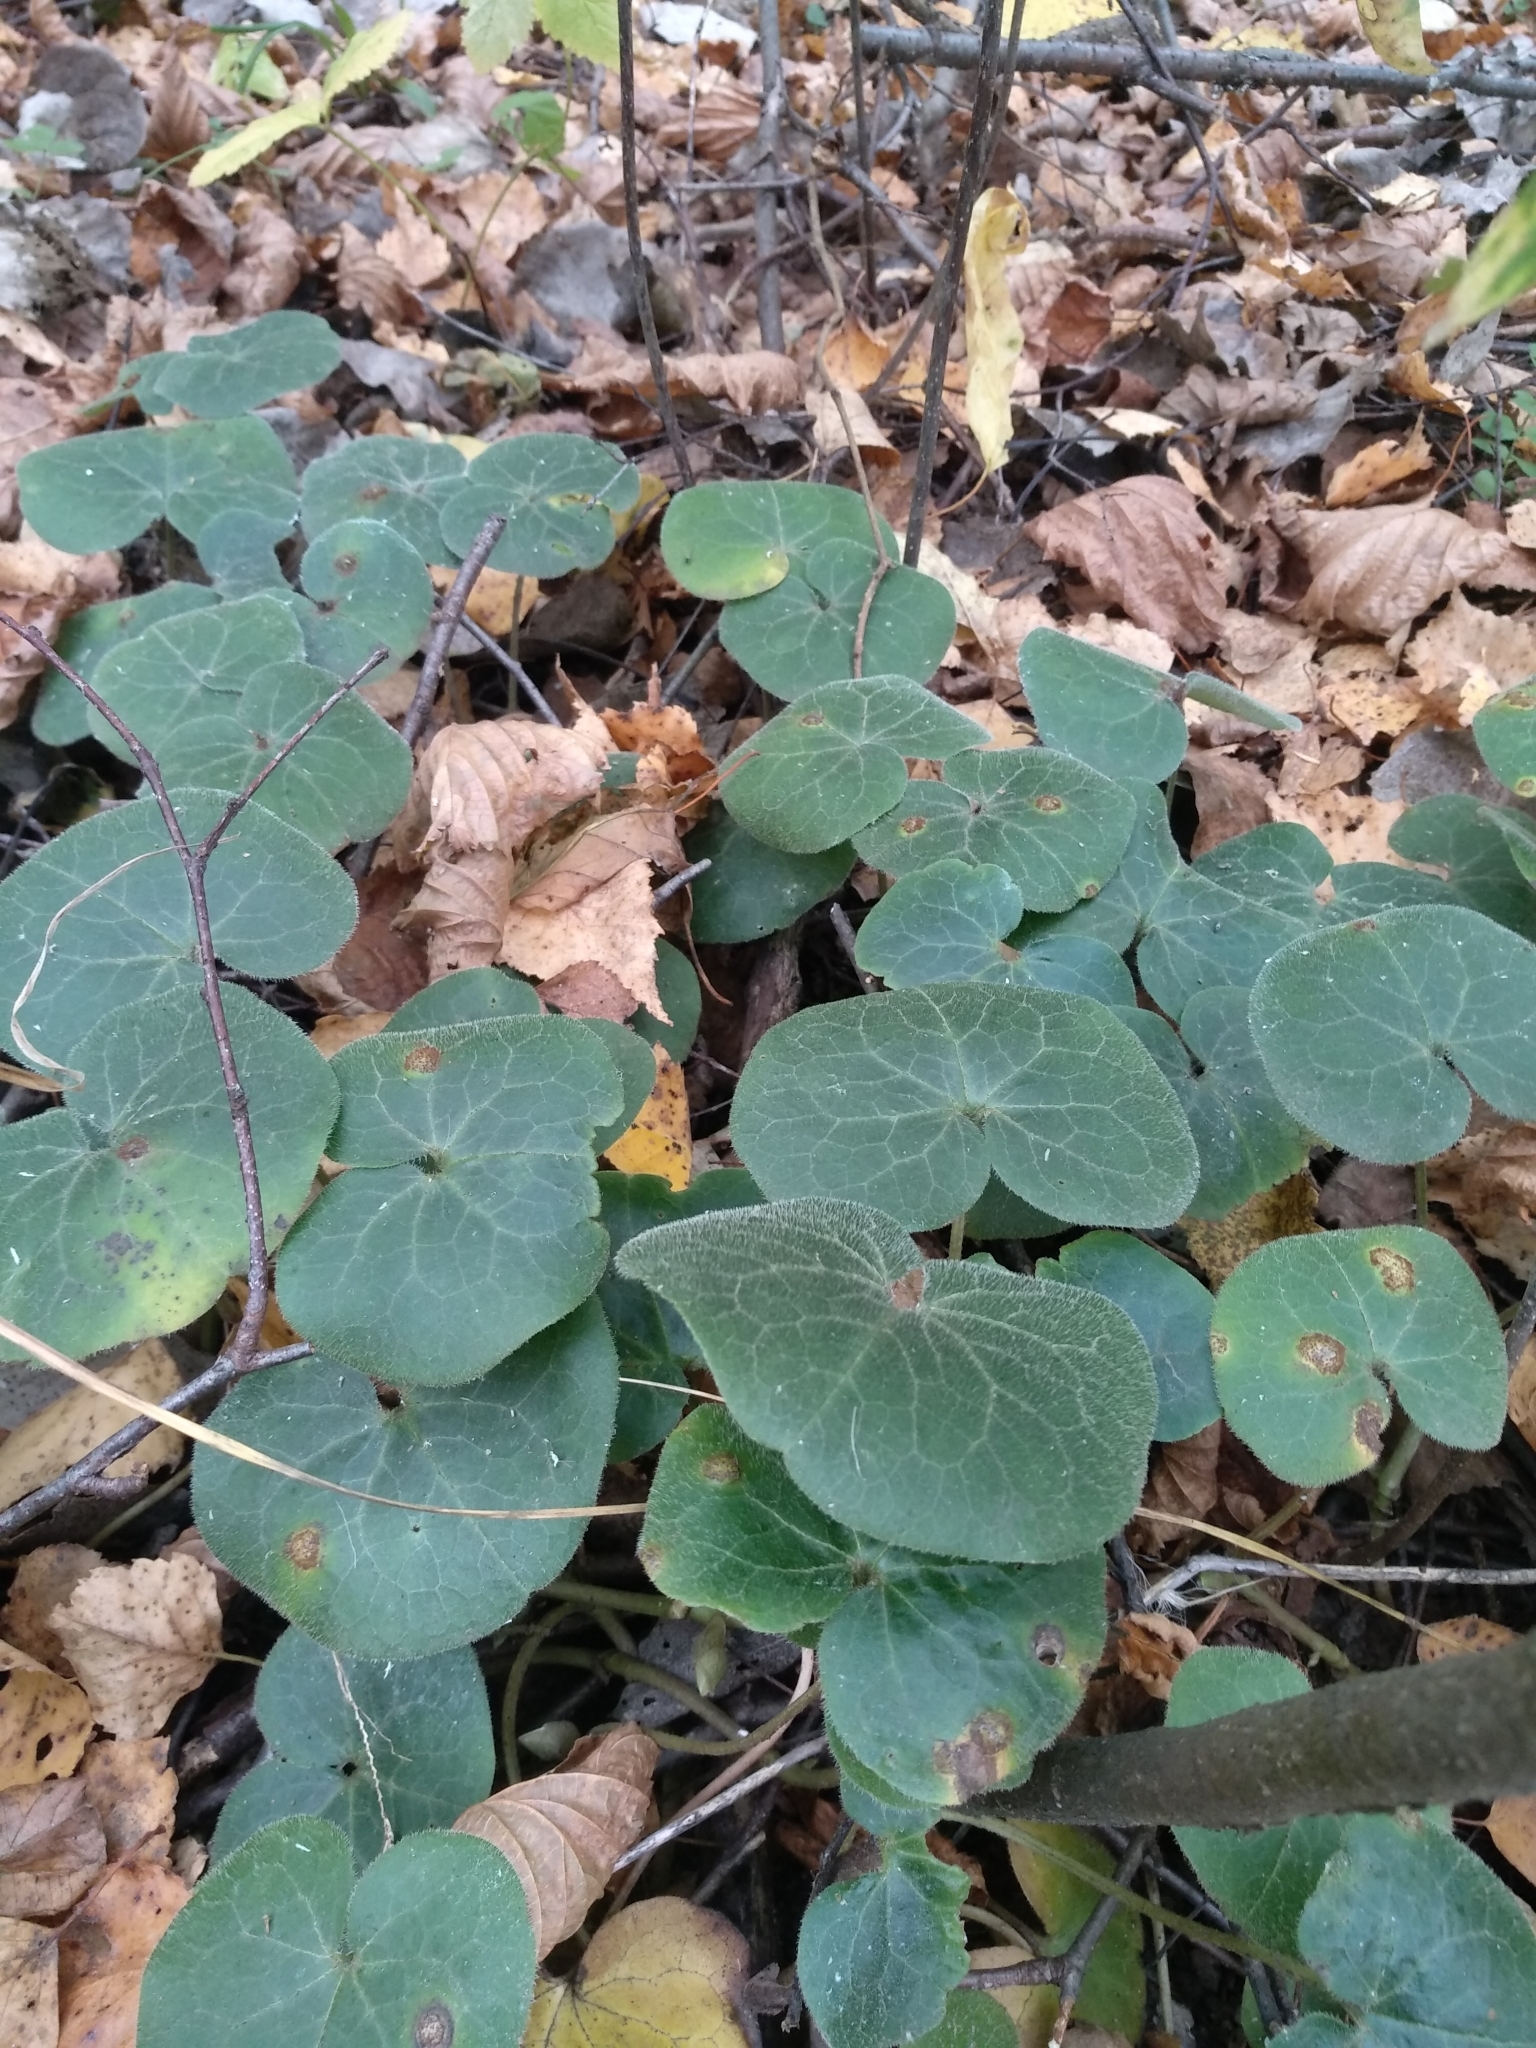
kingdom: Plantae
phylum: Tracheophyta
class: Magnoliopsida
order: Piperales
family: Aristolochiaceae
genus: Asarum
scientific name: Asarum europaeum
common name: Asarabacca
